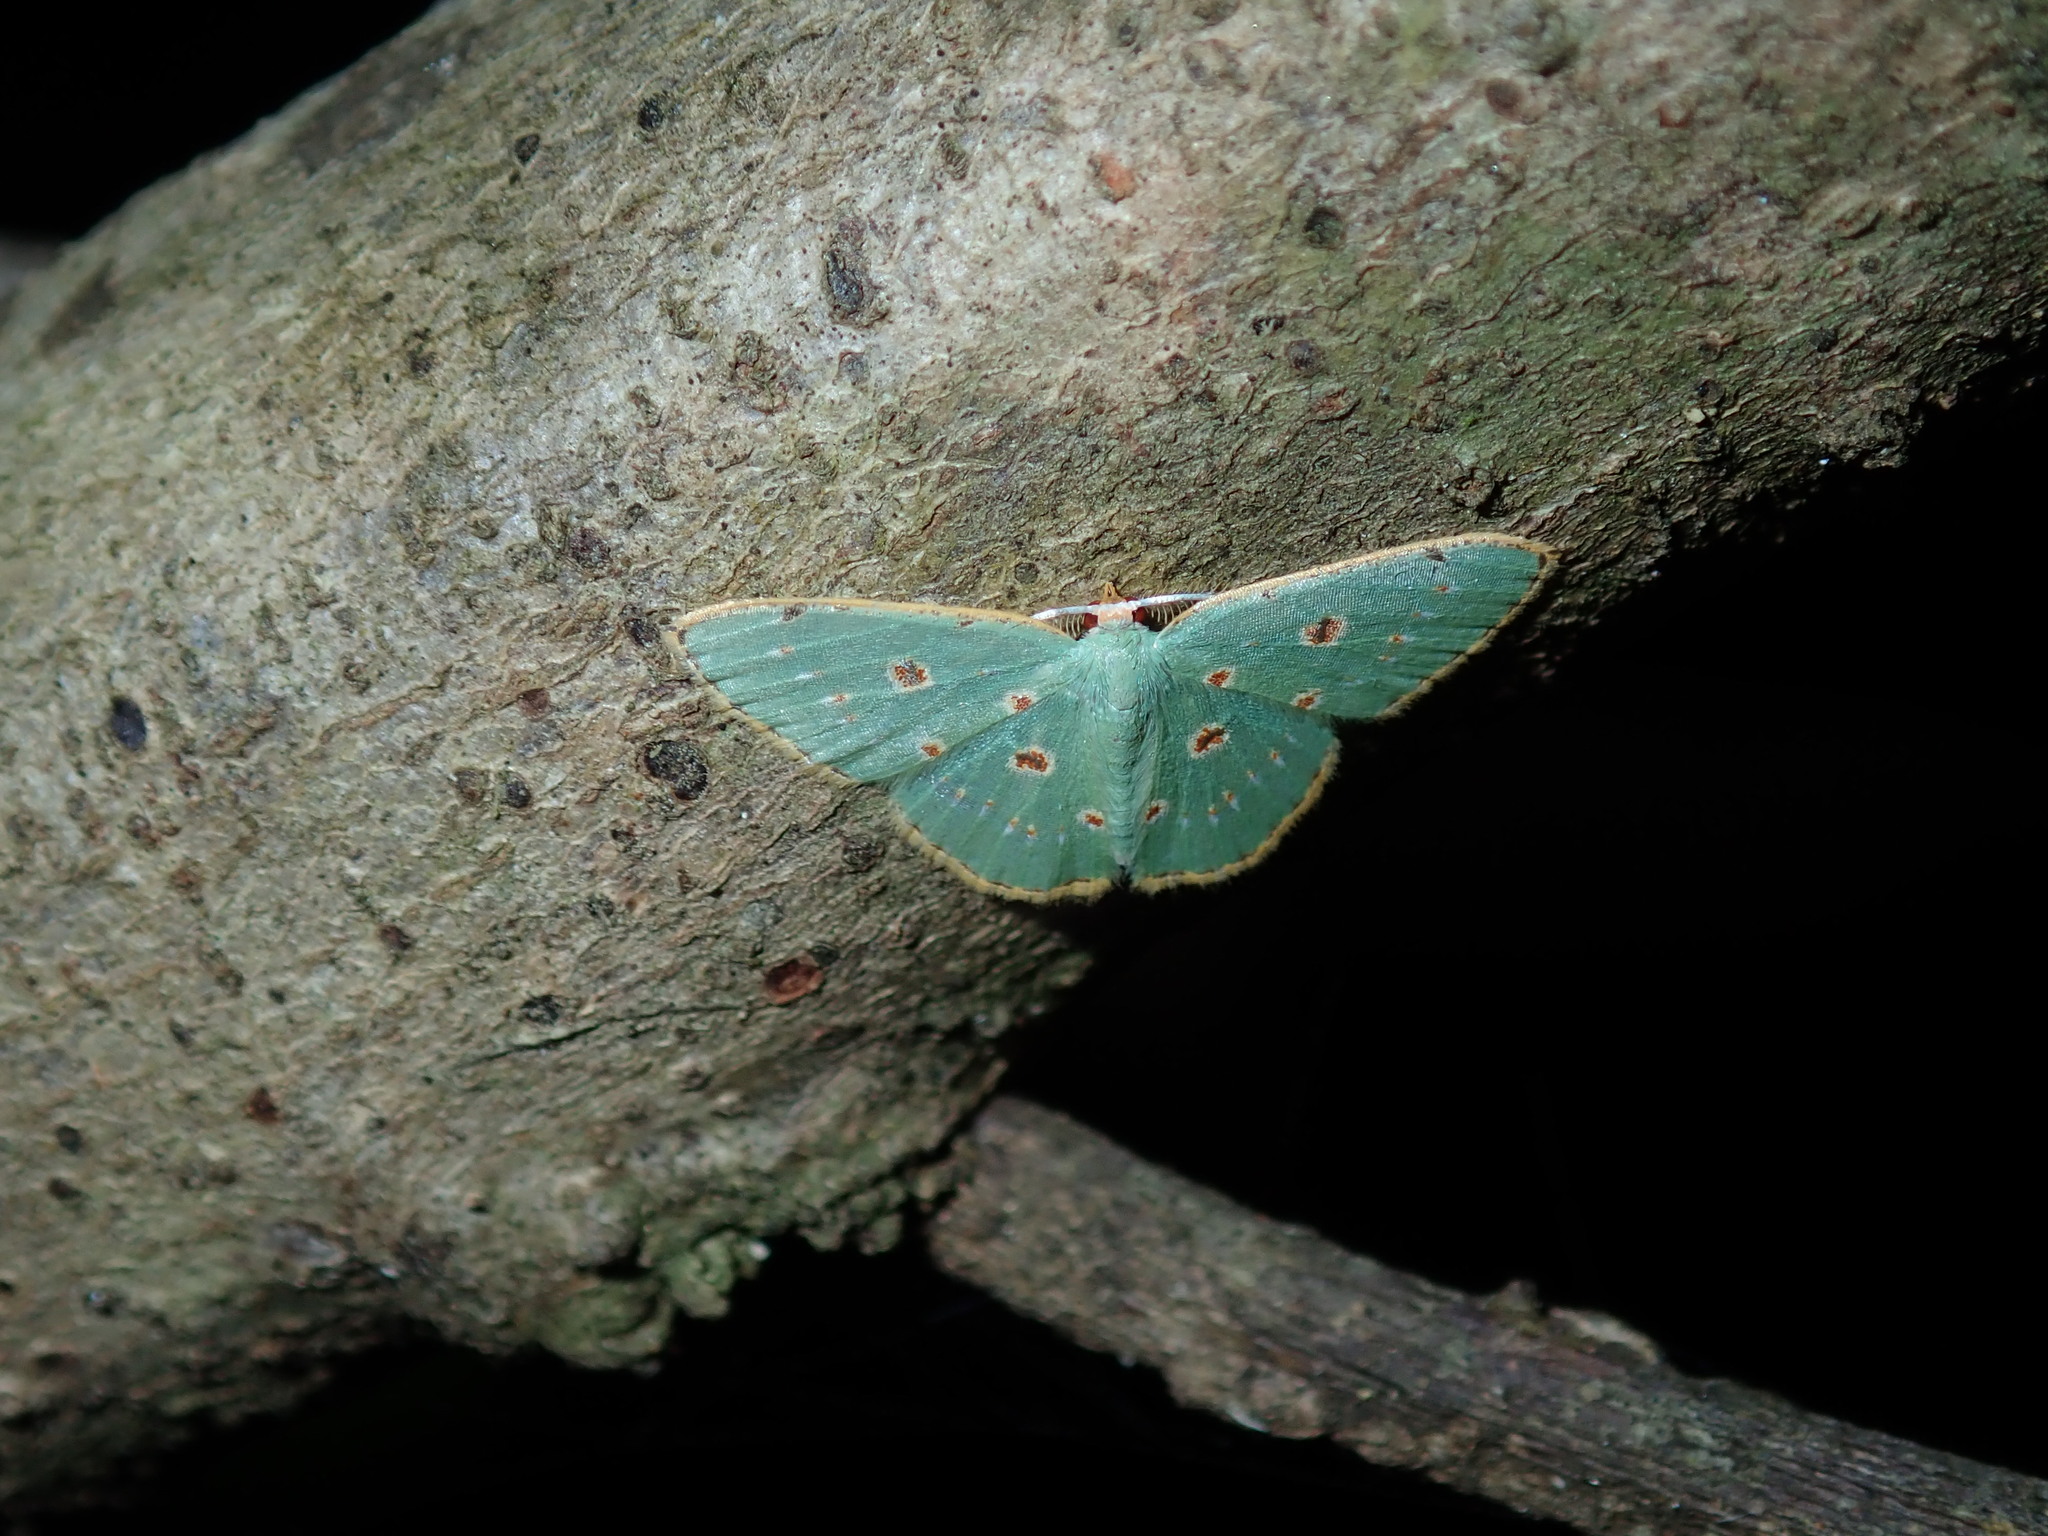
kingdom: Animalia
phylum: Arthropoda
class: Insecta
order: Lepidoptera
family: Geometridae
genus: Comostola
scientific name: Comostola laesaria
